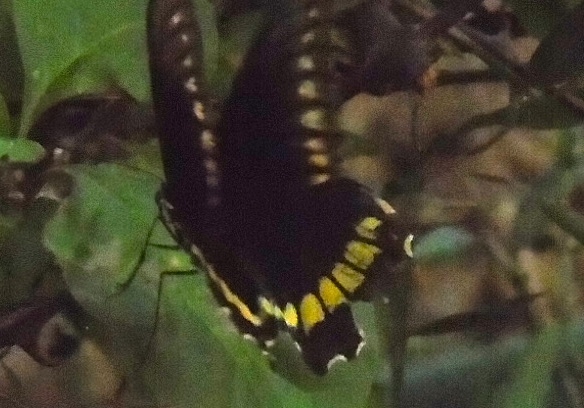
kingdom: Animalia
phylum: Arthropoda
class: Insecta
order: Lepidoptera
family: Papilionidae
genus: Battus
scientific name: Battus polydamas
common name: Polydamas swallowtail
